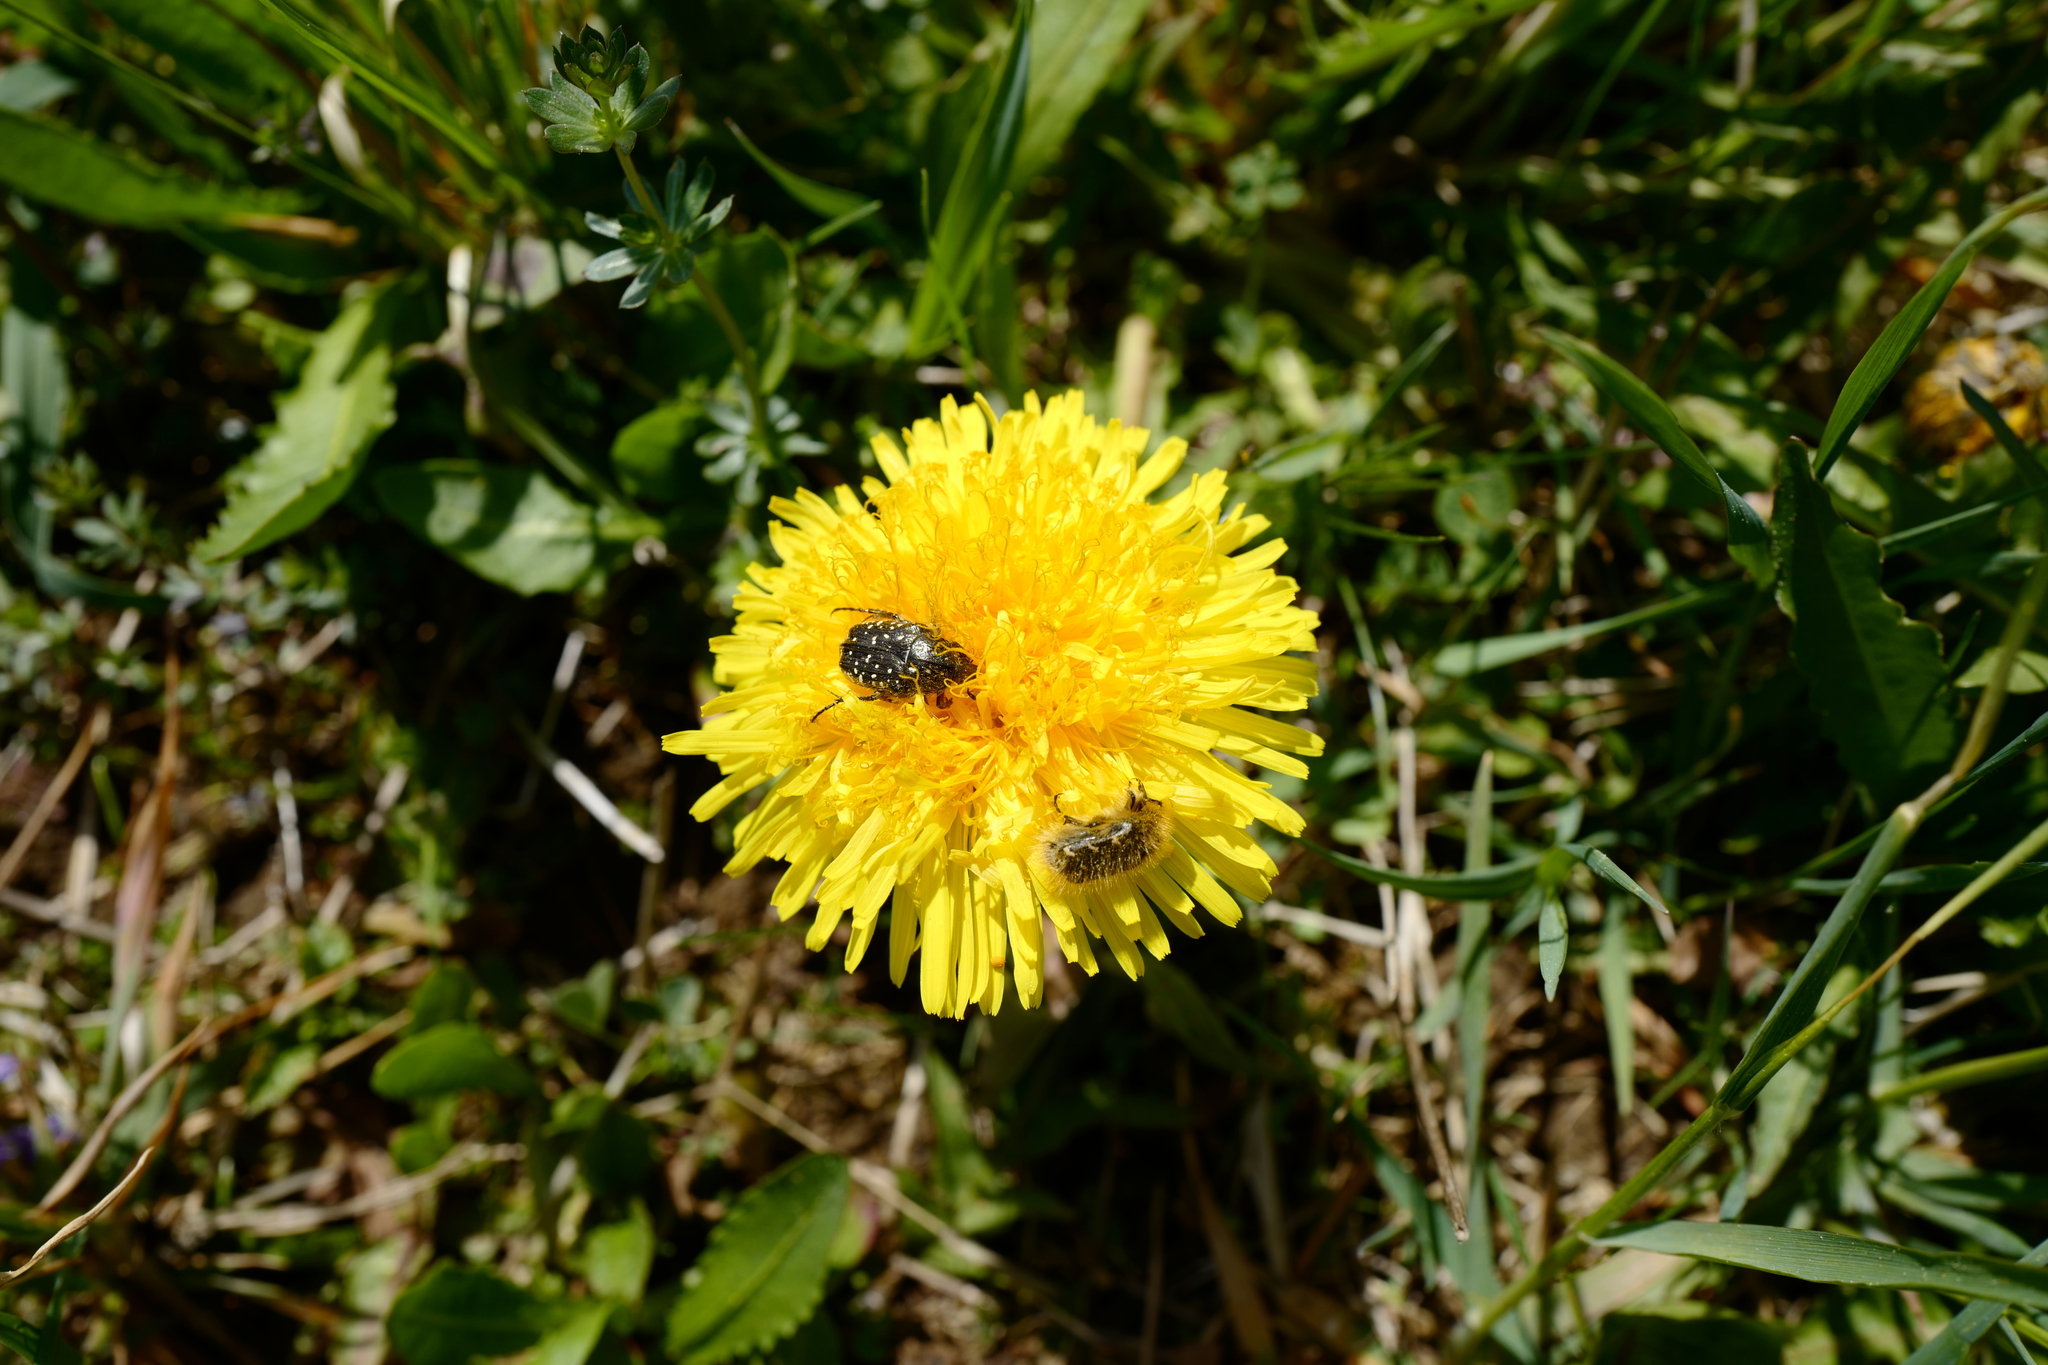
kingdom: Animalia
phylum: Arthropoda
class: Insecta
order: Coleoptera
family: Scarabaeidae
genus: Tropinota
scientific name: Tropinota hirta
